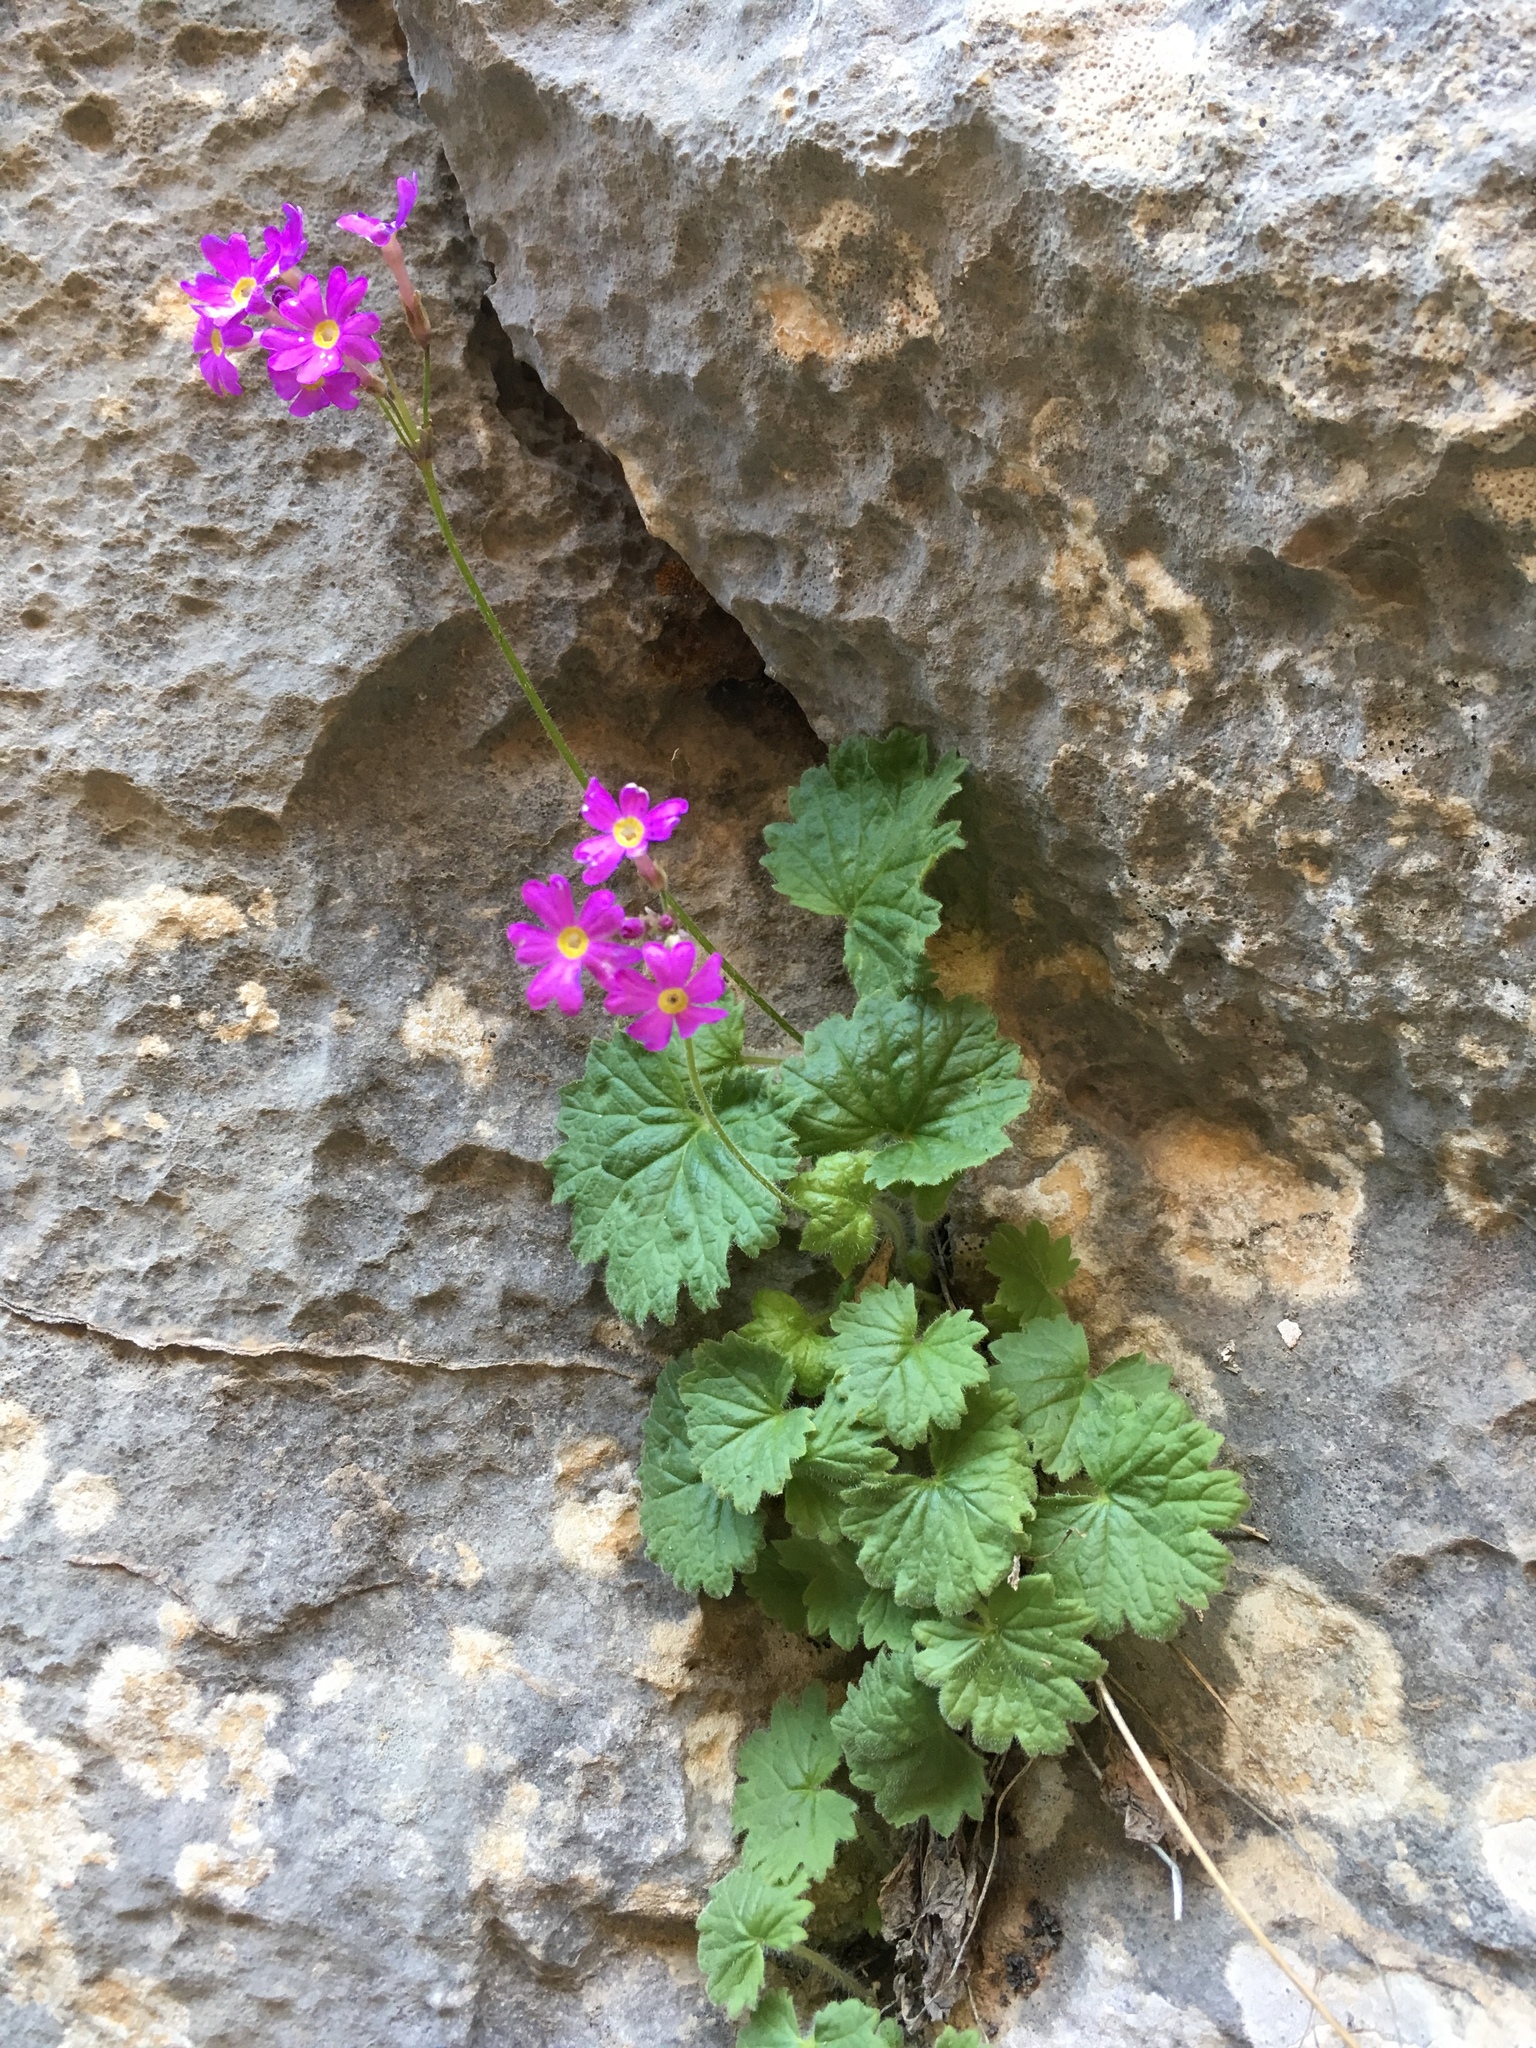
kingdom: Plantae
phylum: Tracheophyta
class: Magnoliopsida
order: Ericales
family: Primulaceae
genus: Primula
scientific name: Primula minkwitziae
